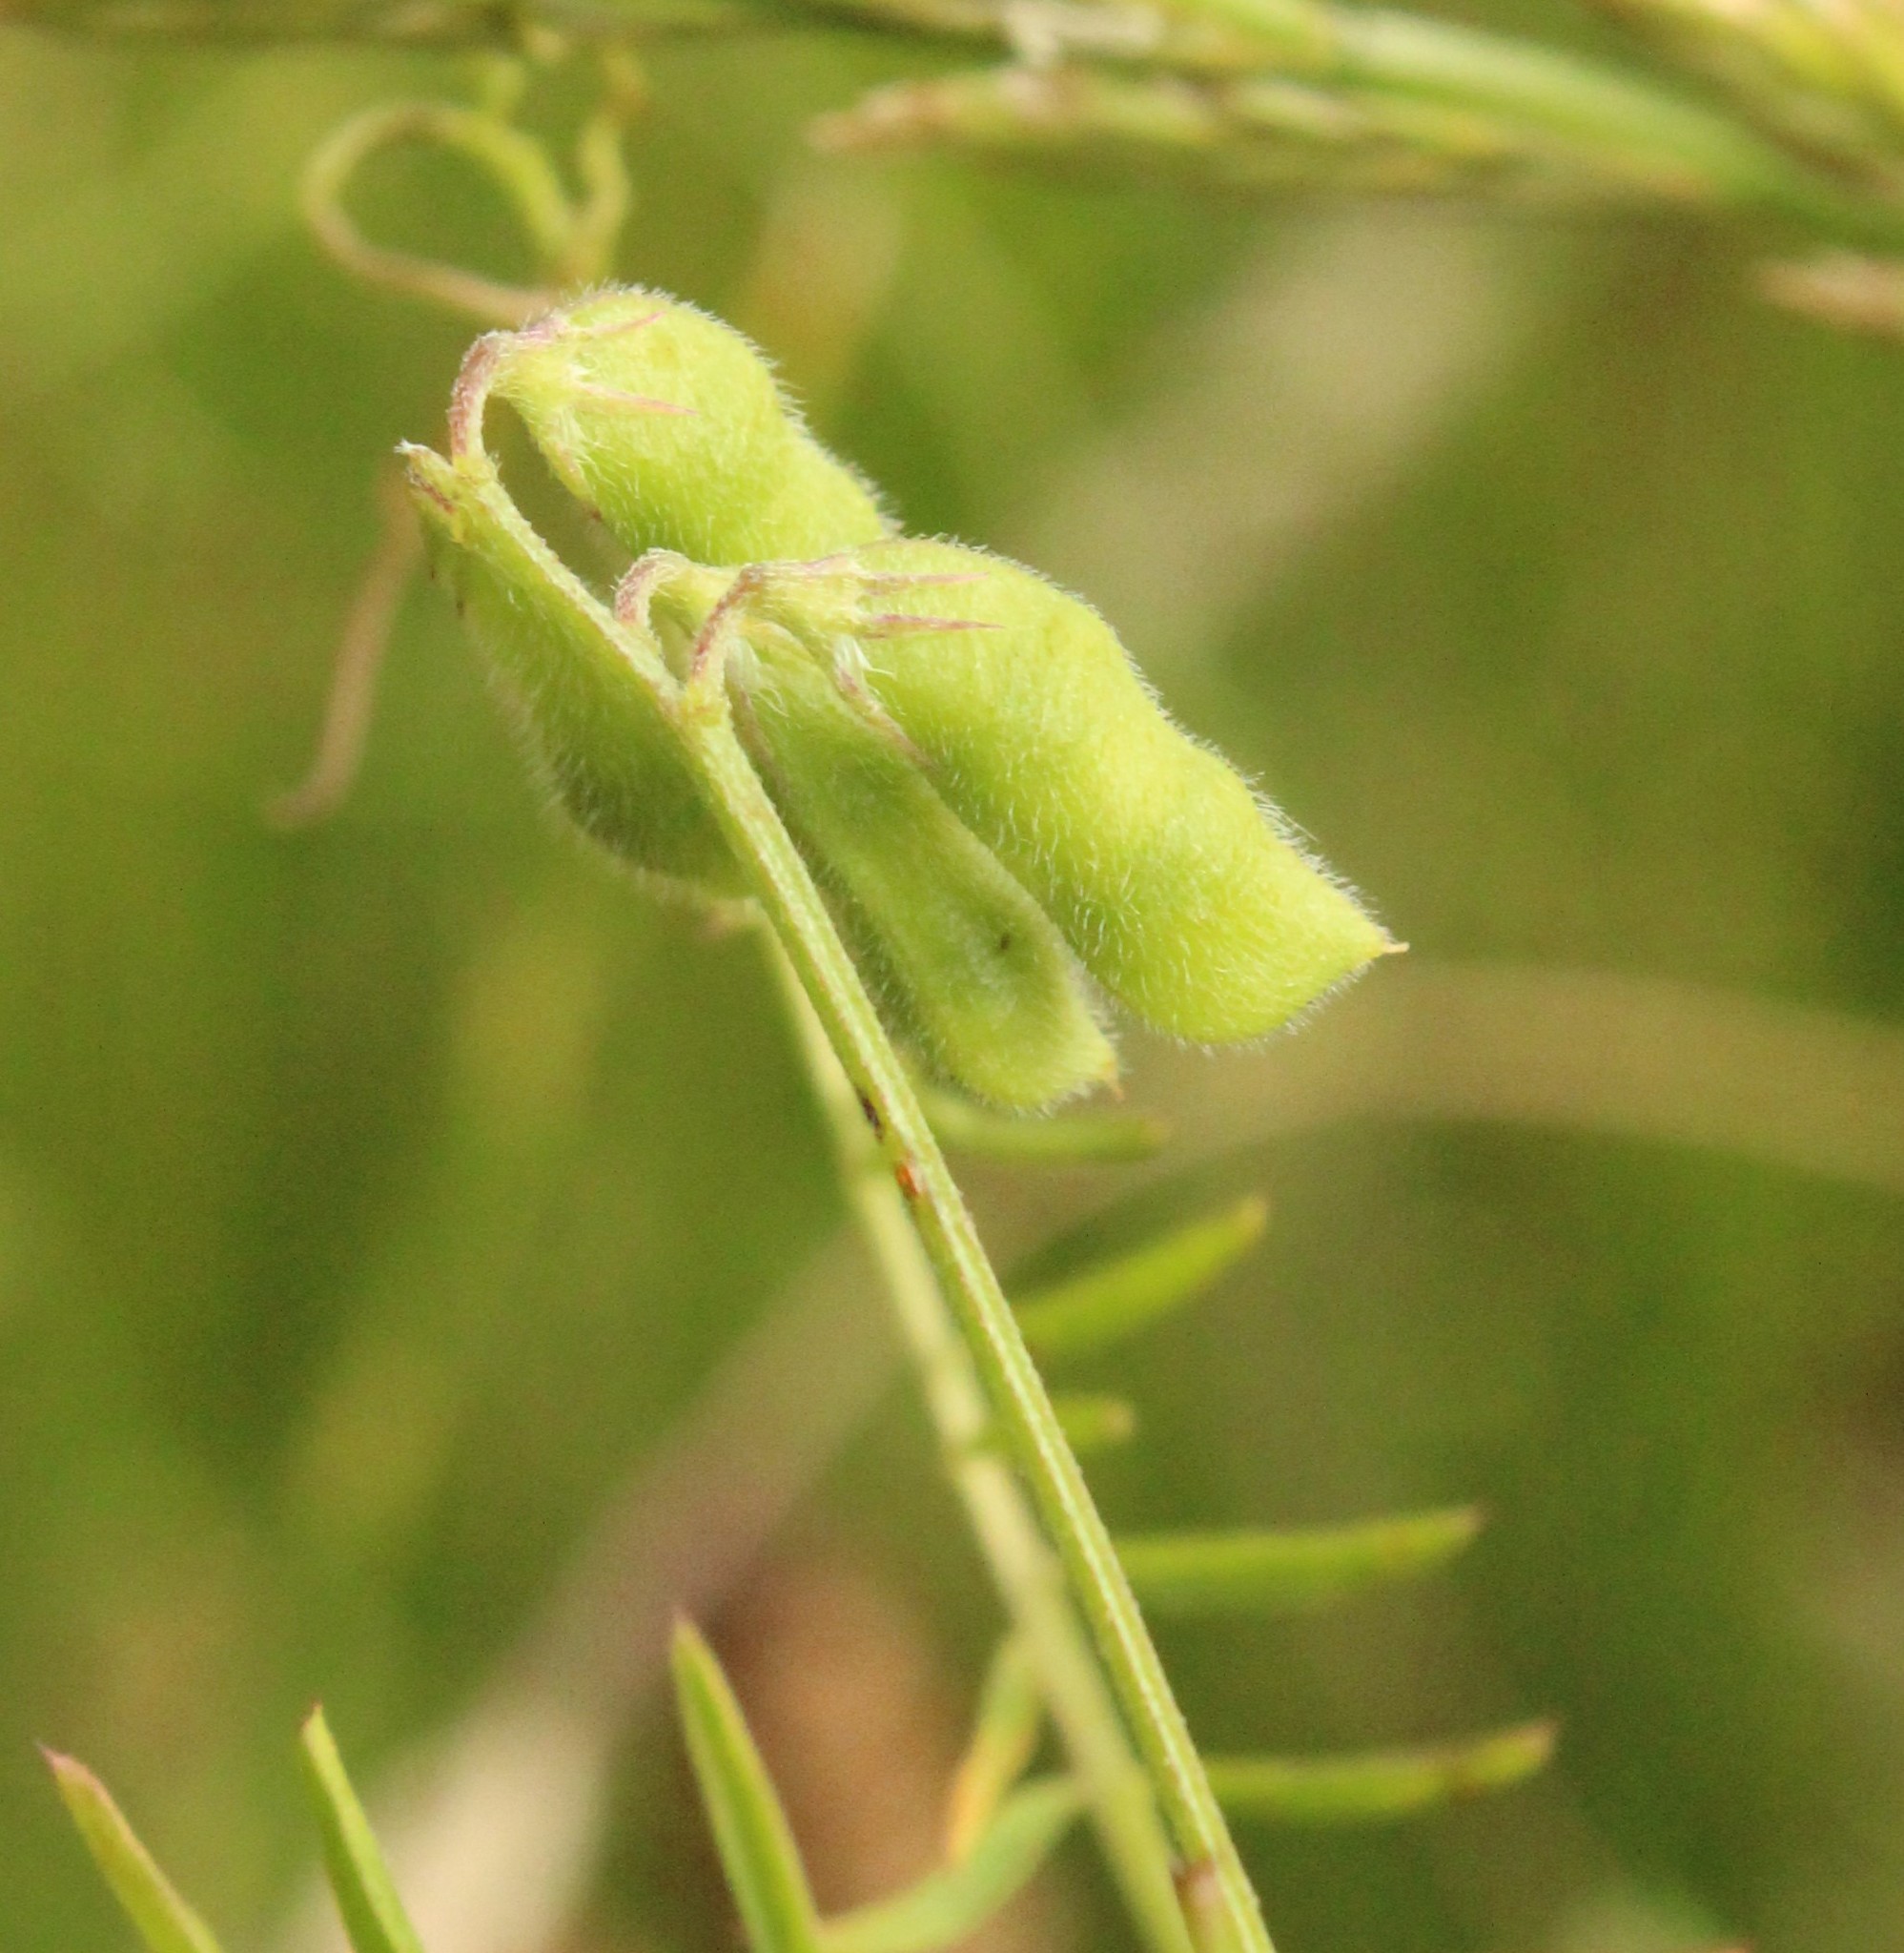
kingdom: Plantae
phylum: Tracheophyta
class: Magnoliopsida
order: Fabales
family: Fabaceae
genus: Vicia
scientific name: Vicia hirsuta
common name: Tiny vetch
